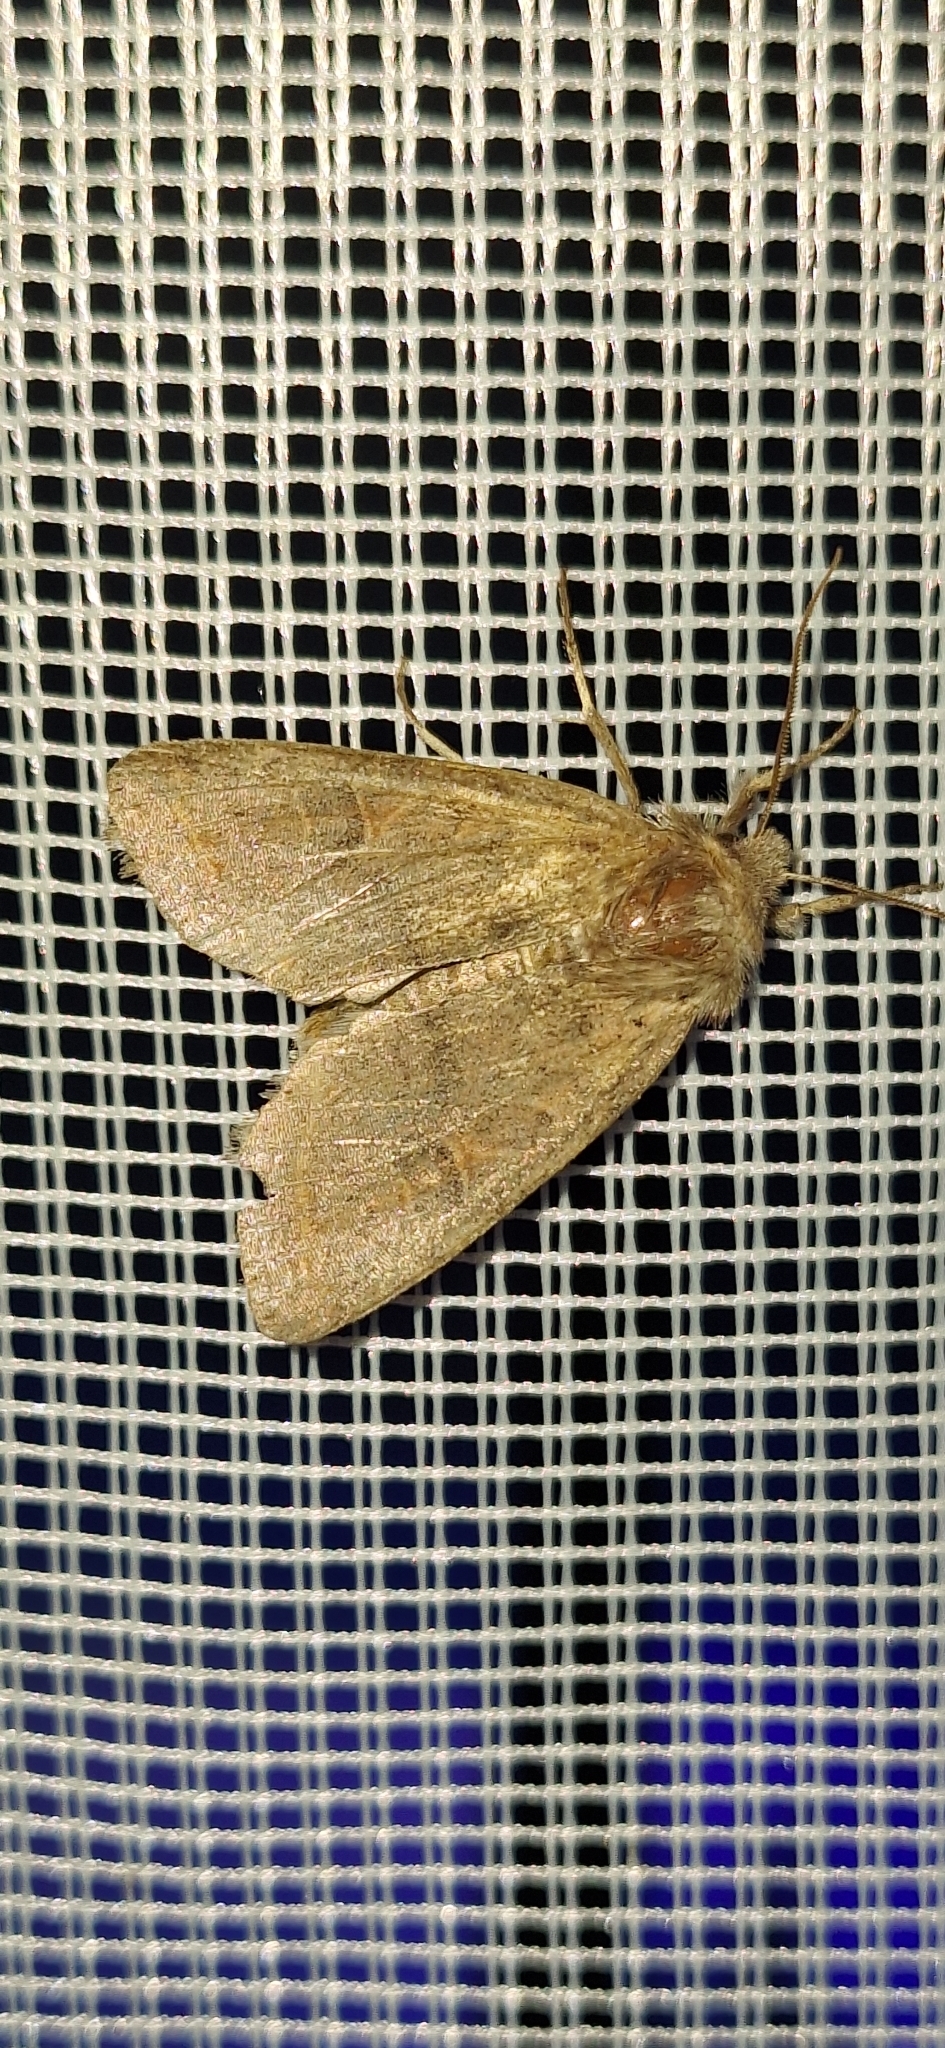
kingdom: Animalia
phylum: Arthropoda
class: Insecta
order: Lepidoptera
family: Noctuidae
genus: Anorthoa
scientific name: Anorthoa munda
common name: Twin-spotted quaker
